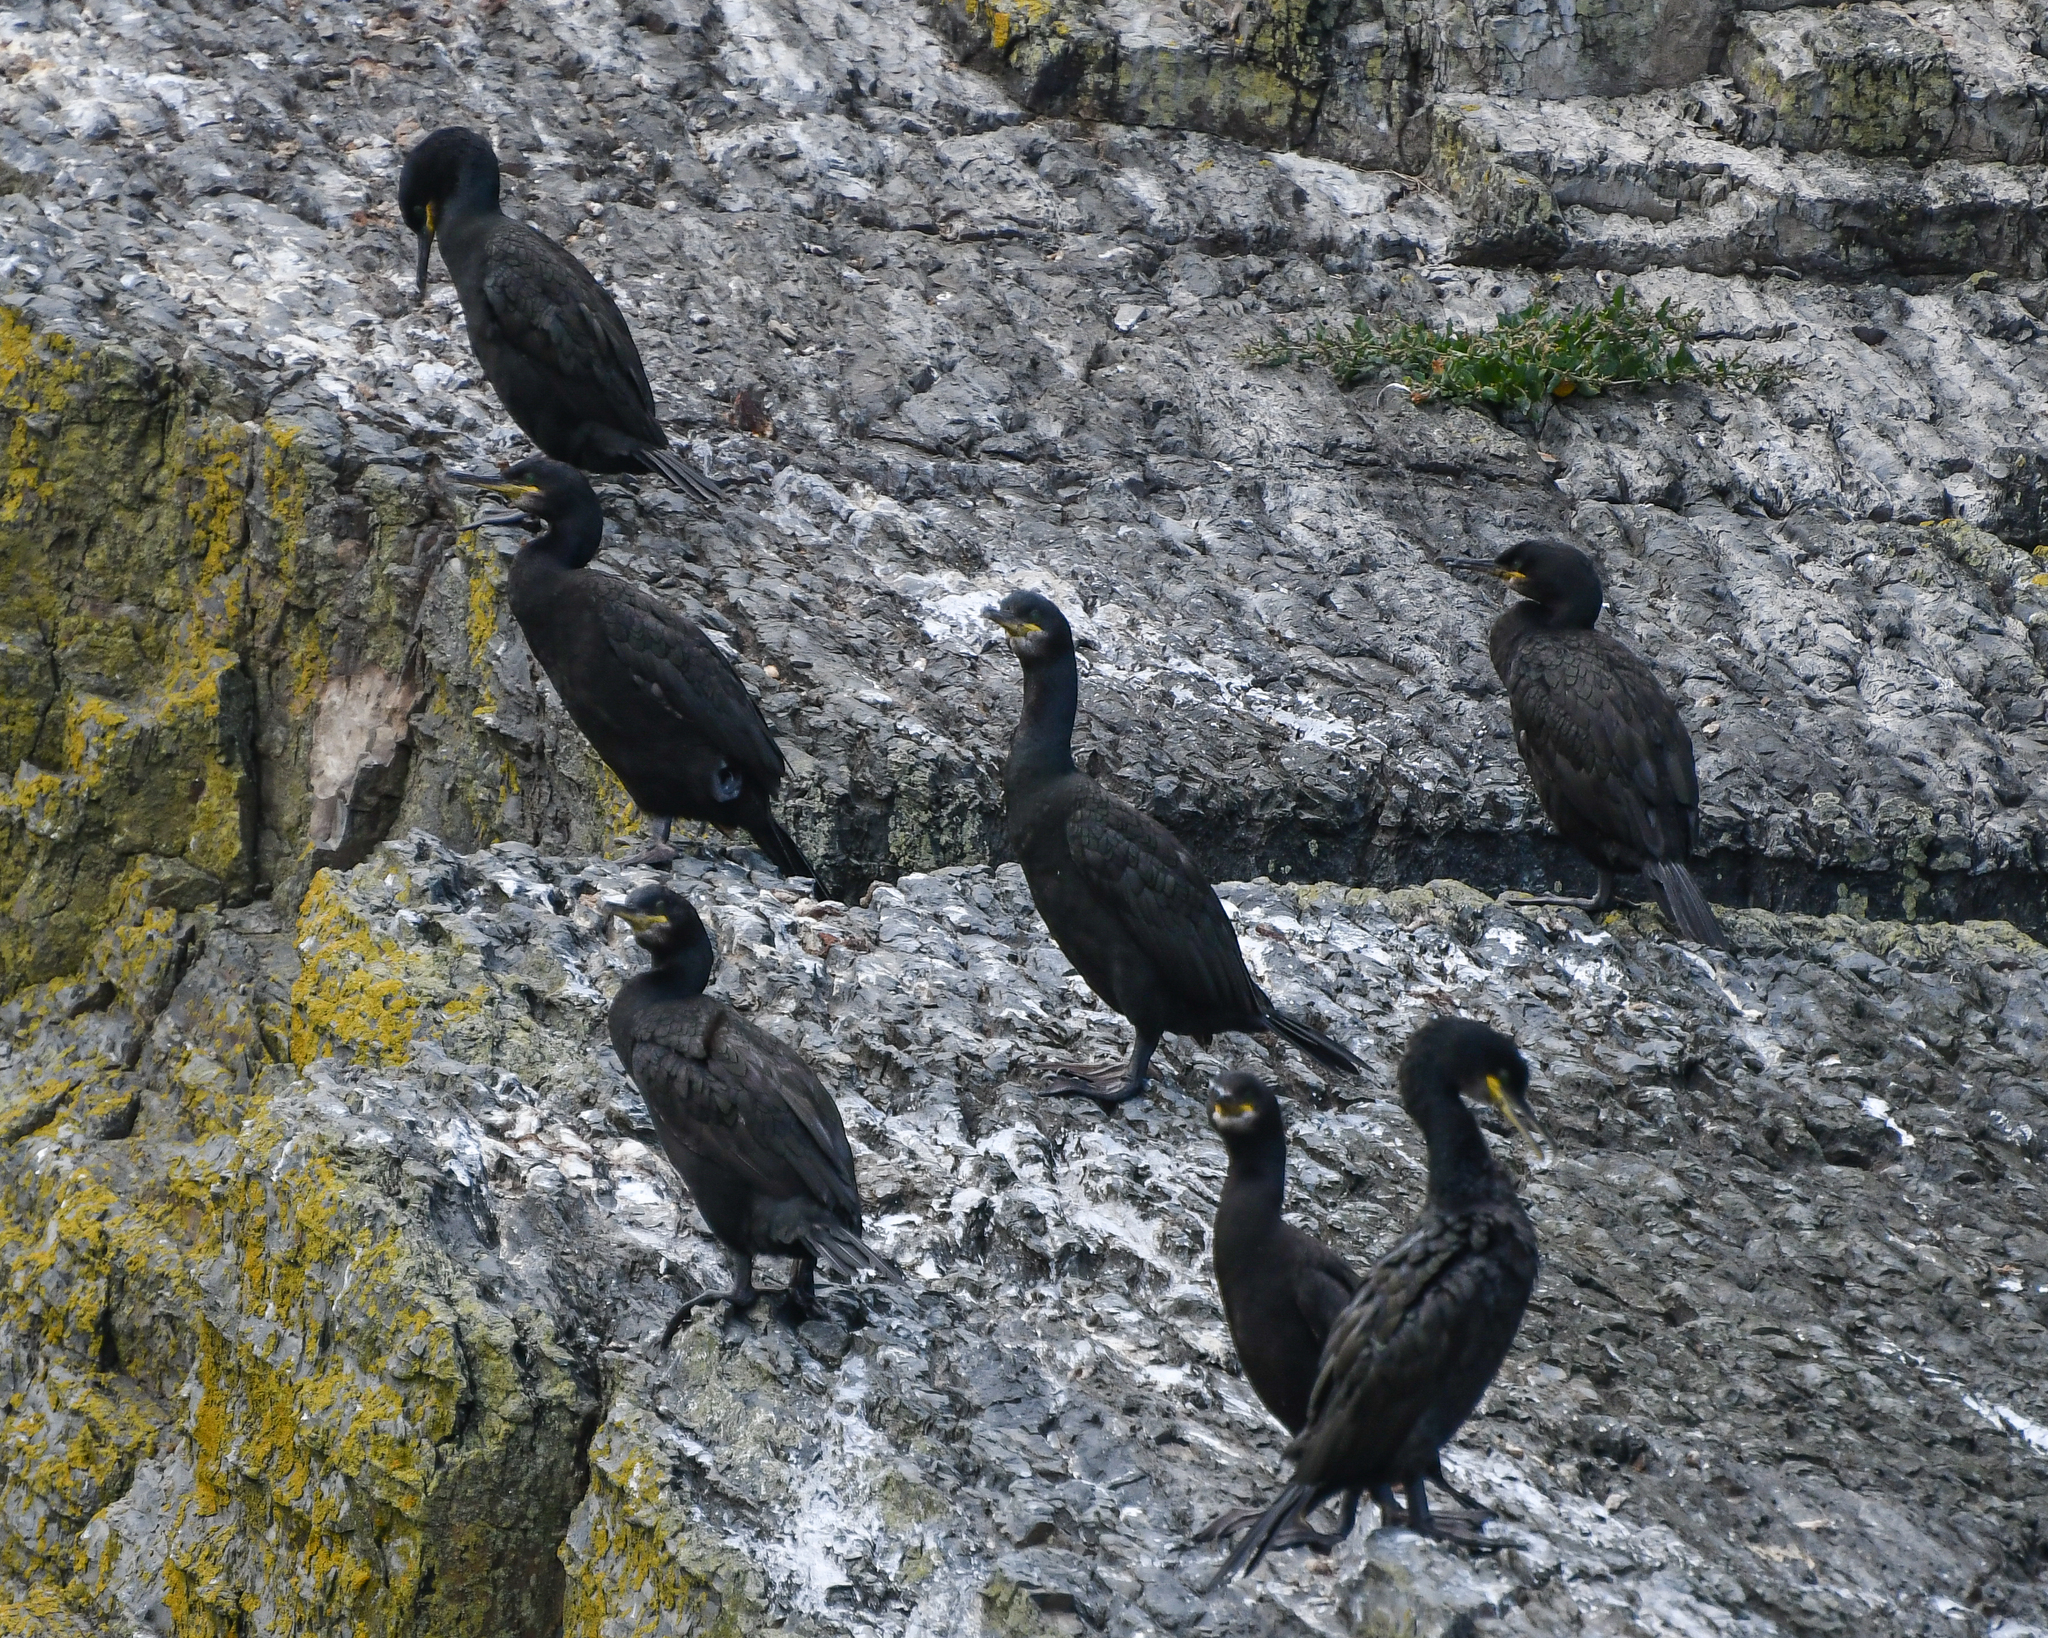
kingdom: Animalia
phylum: Chordata
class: Aves
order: Suliformes
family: Phalacrocoracidae
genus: Phalacrocorax
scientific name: Phalacrocorax aristotelis
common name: European shag
